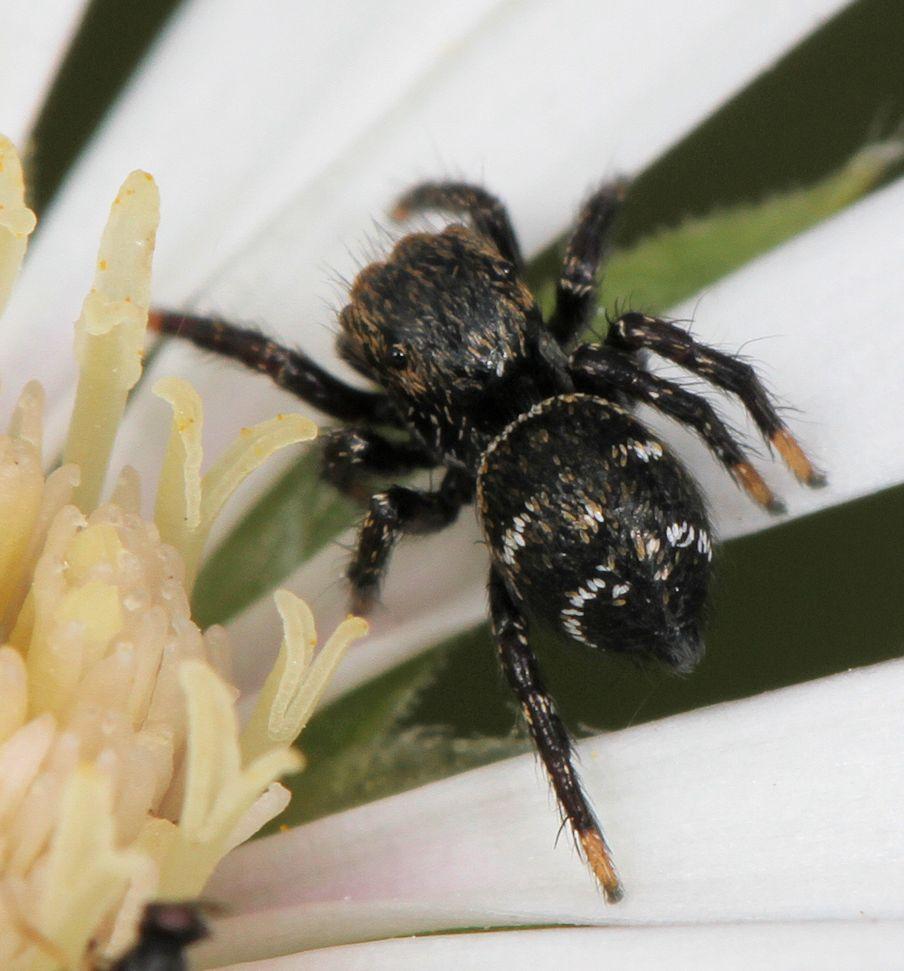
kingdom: Animalia
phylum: Arthropoda
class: Arachnida
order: Araneae
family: Salticidae
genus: Baryphas
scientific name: Baryphas ahenus
